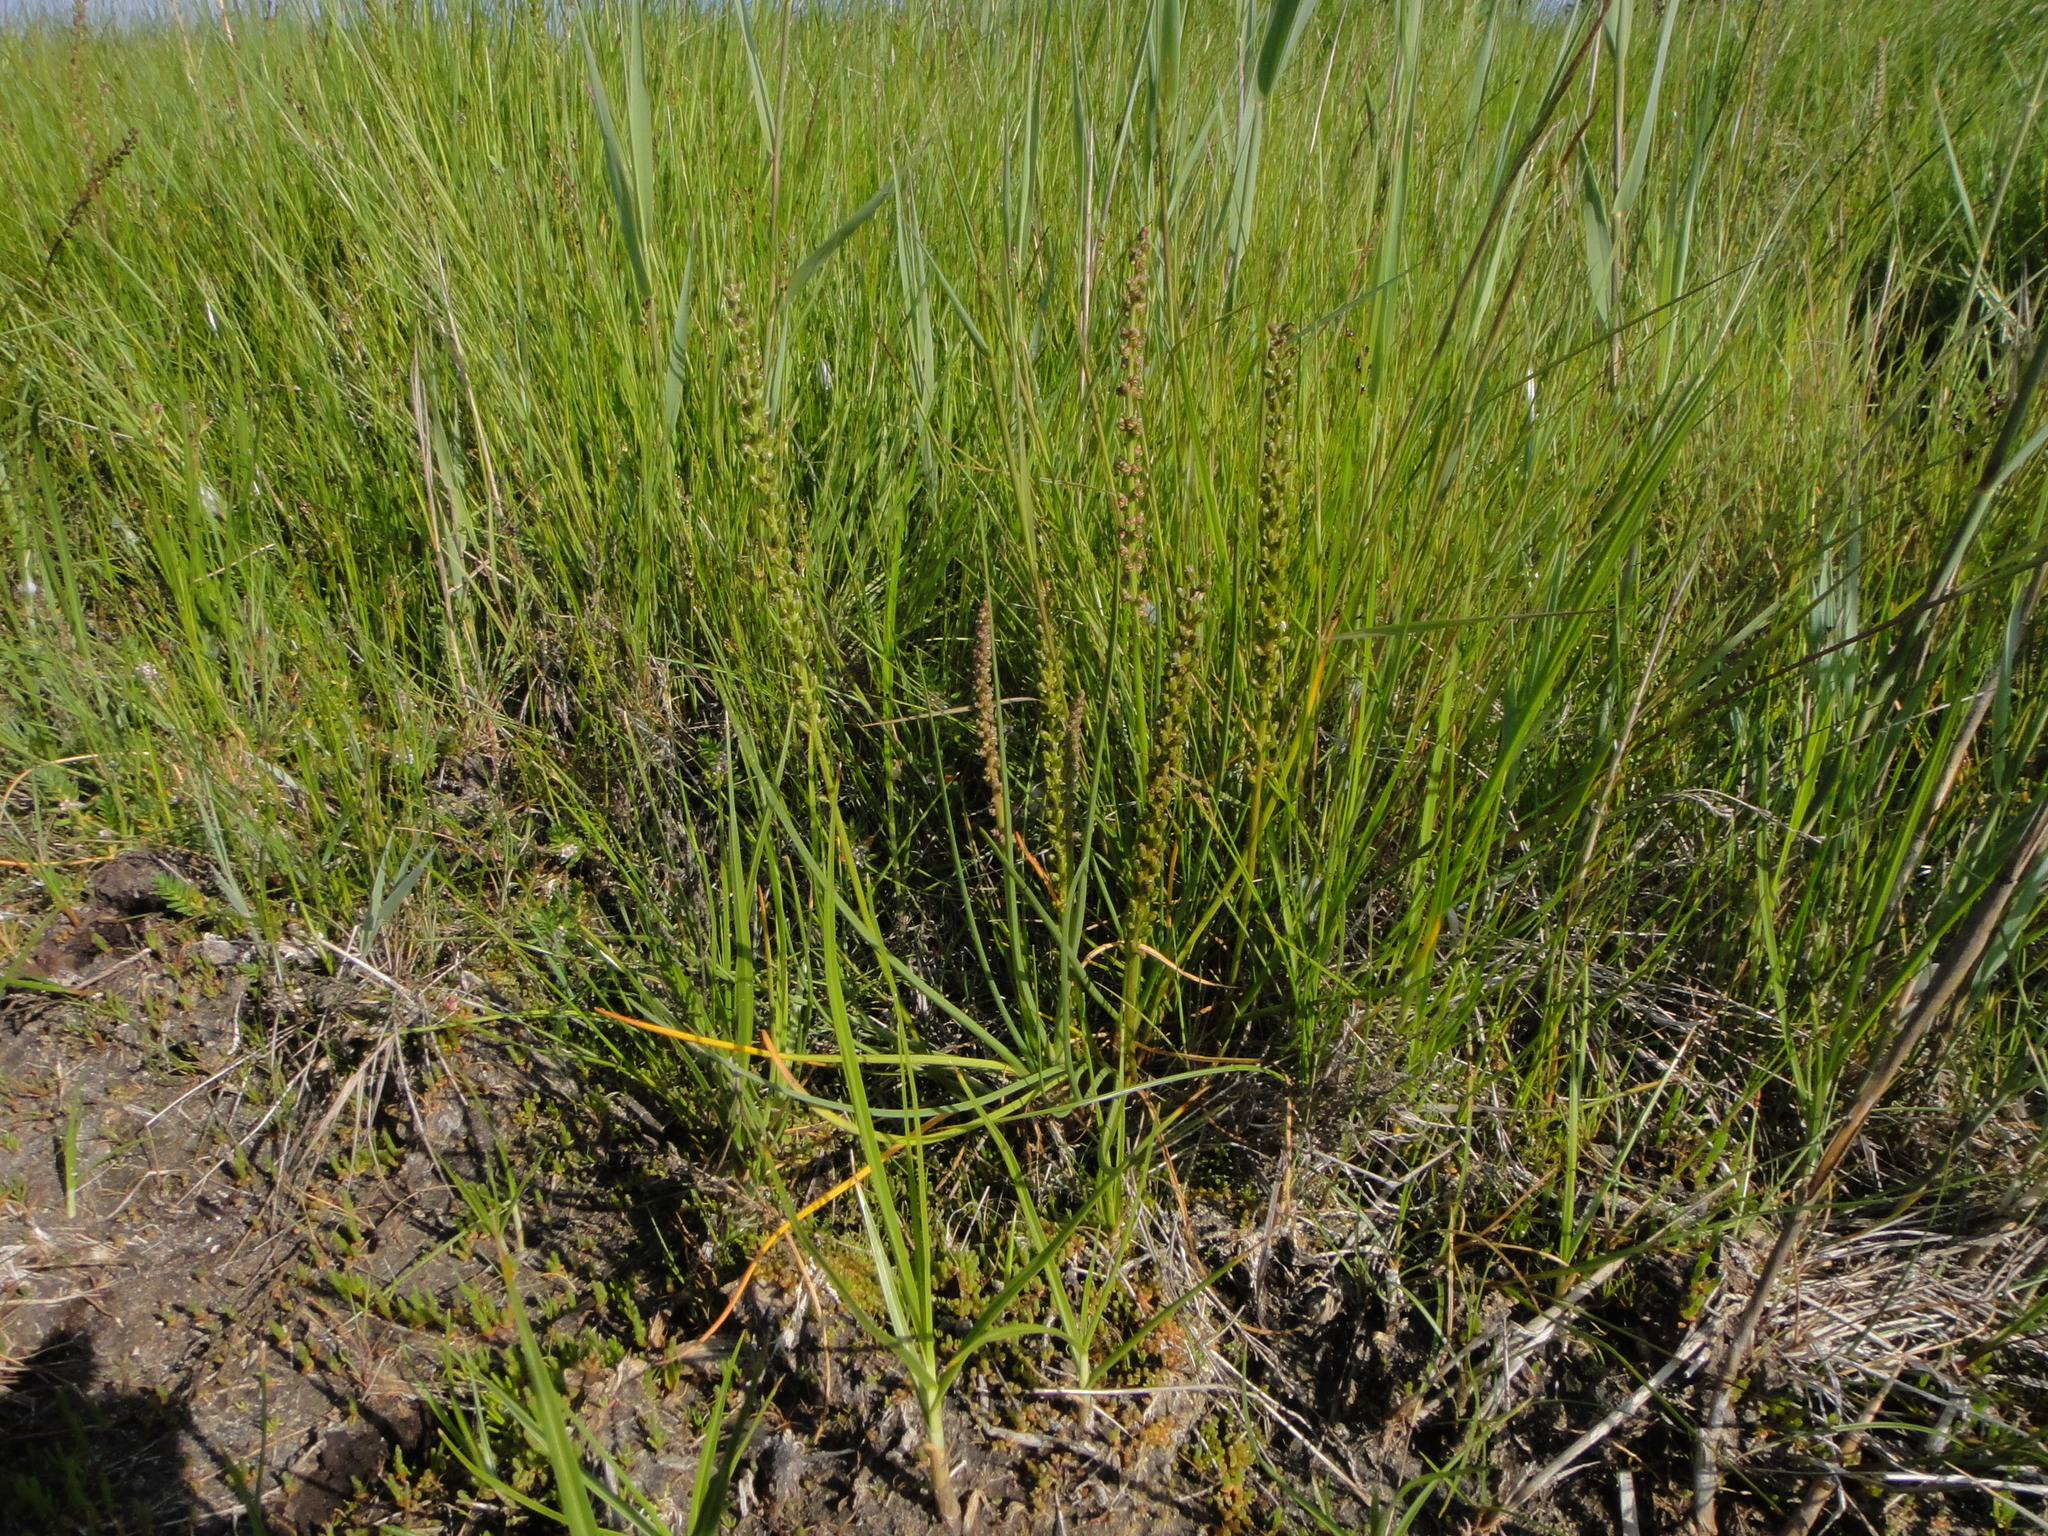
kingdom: Plantae
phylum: Tracheophyta
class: Liliopsida
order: Alismatales
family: Juncaginaceae
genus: Triglochin
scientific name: Triglochin maritima
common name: Sea arrowgrass
